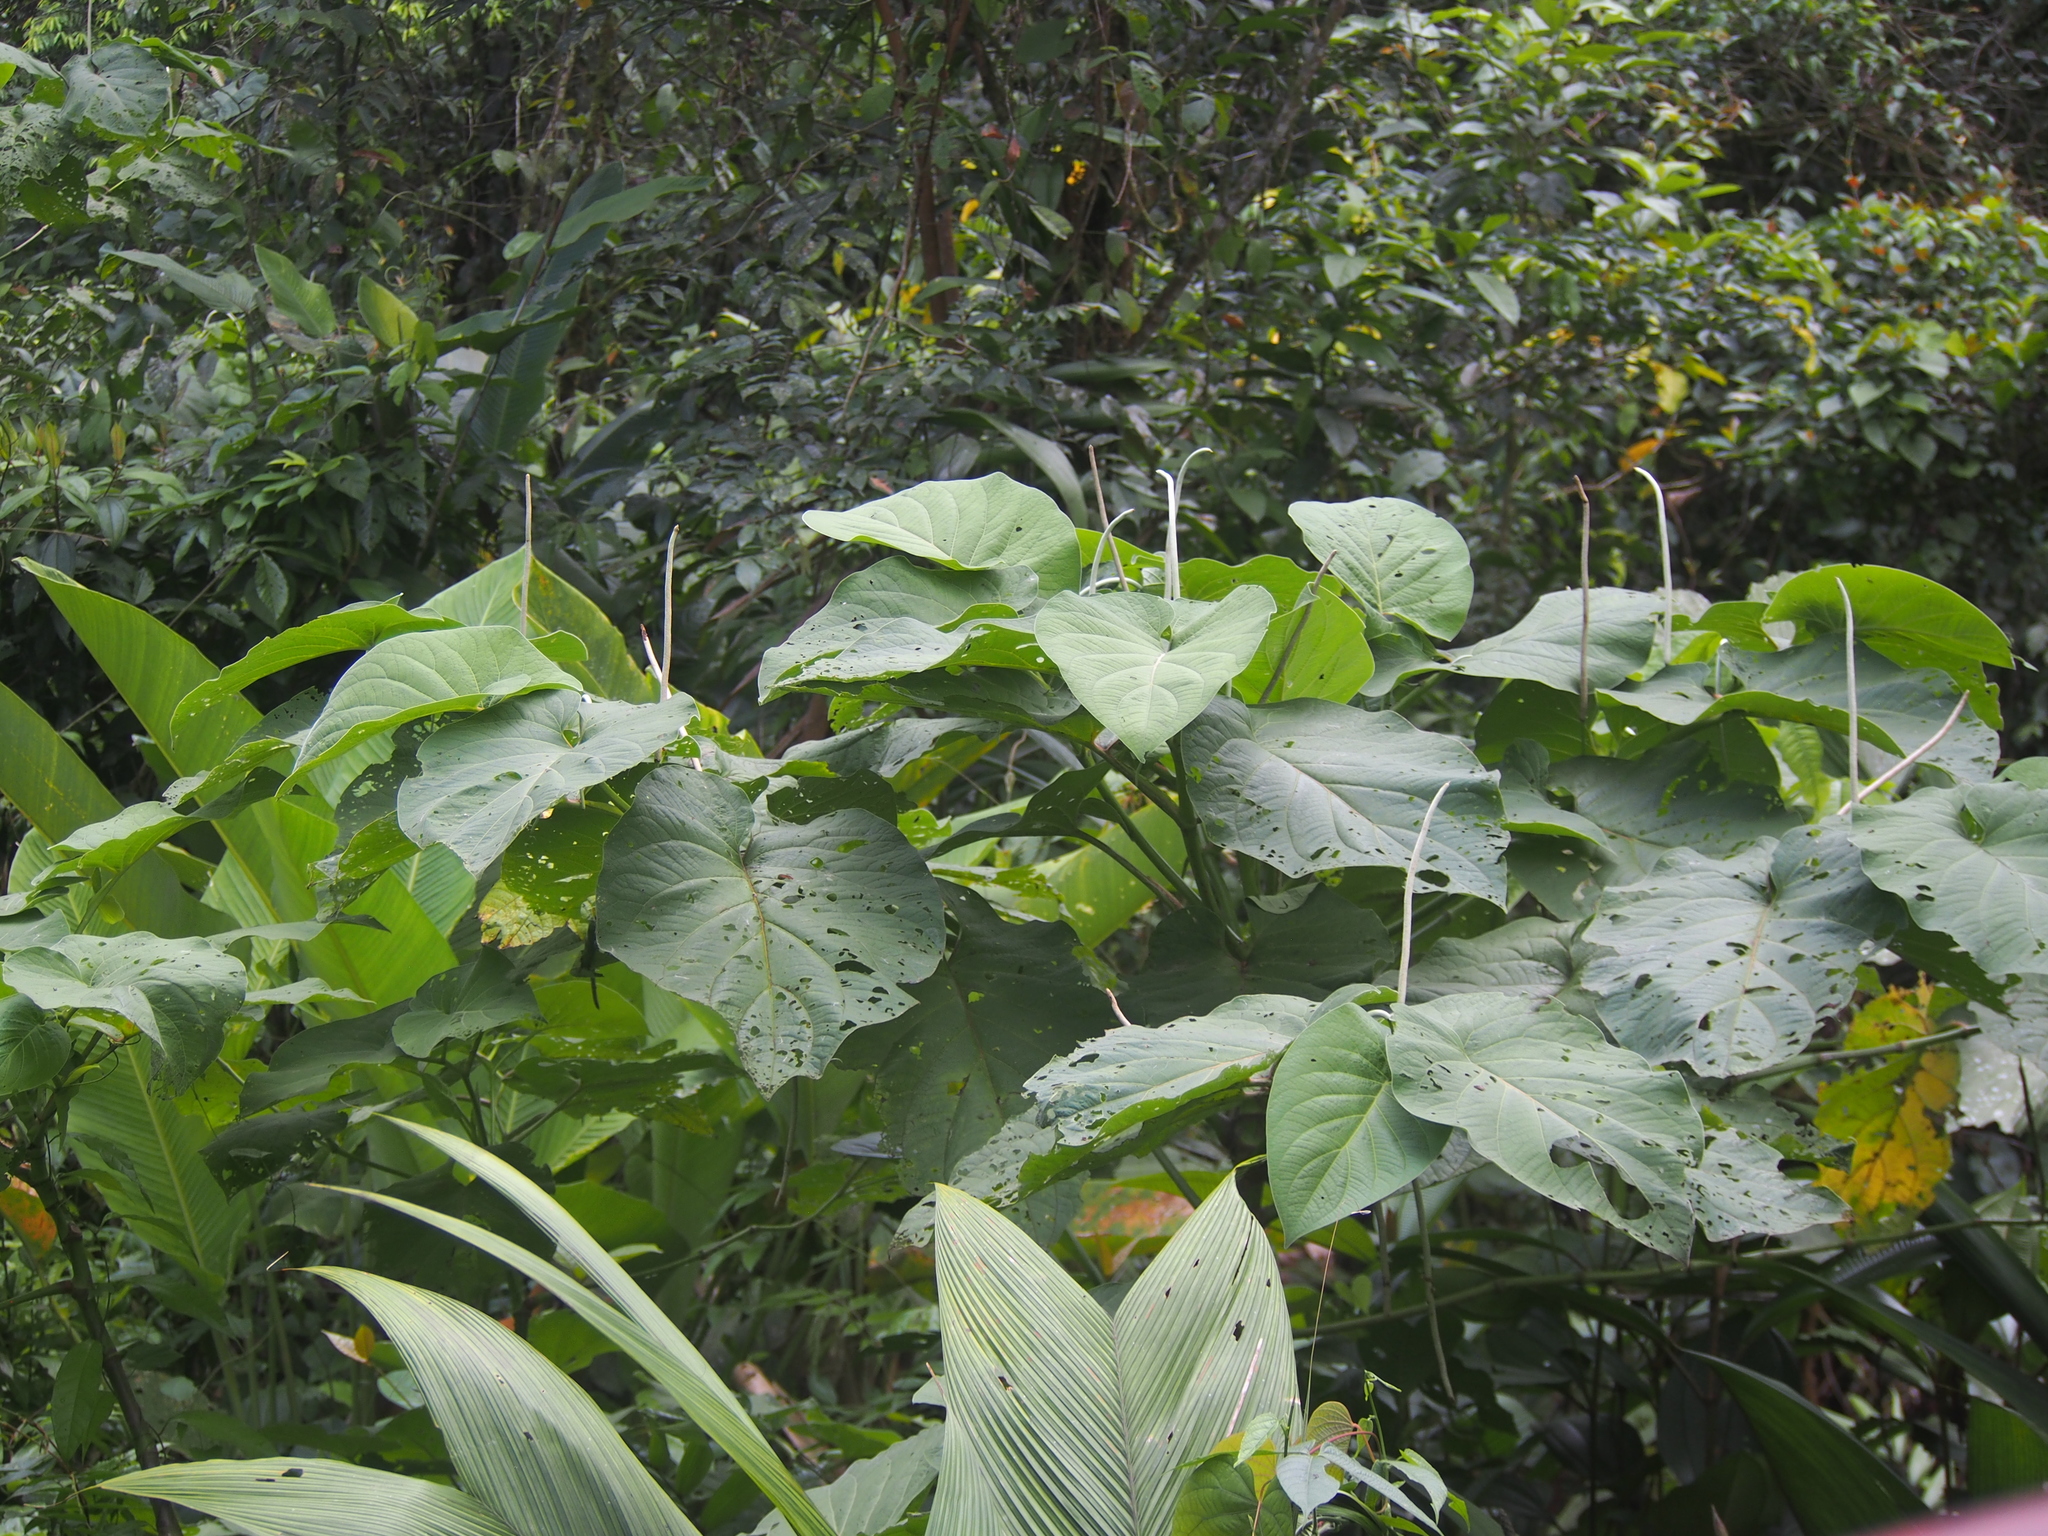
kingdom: Plantae
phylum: Tracheophyta
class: Magnoliopsida
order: Piperales
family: Piperaceae
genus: Piper
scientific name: Piper auritum
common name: Vera cruz pepper
